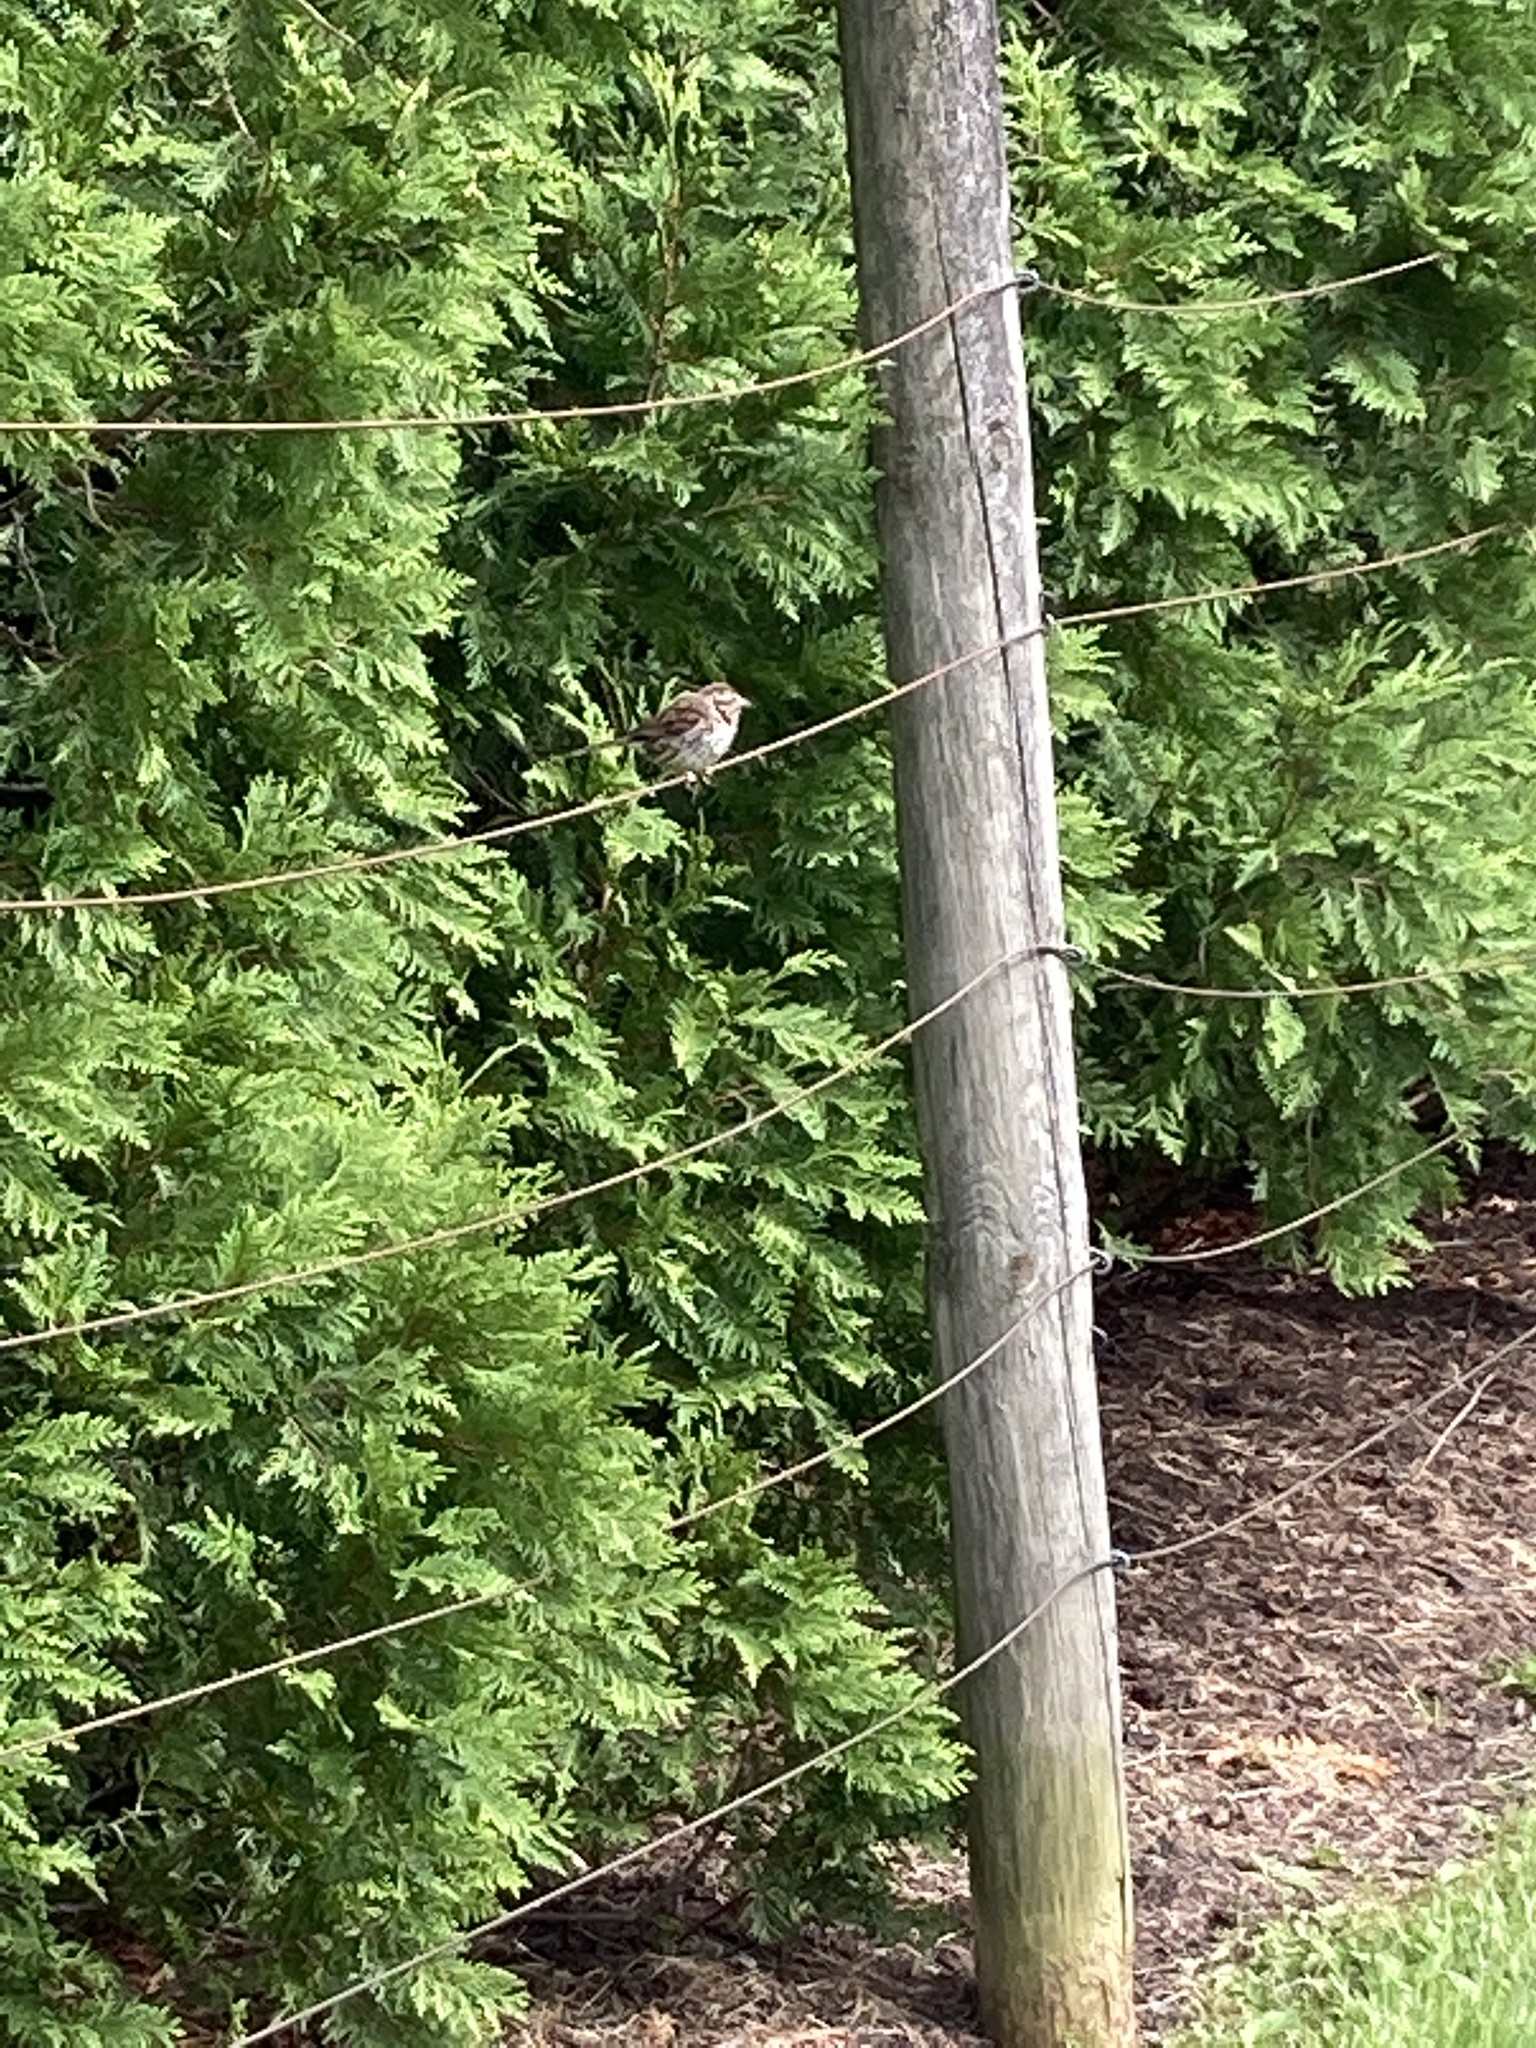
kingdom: Animalia
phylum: Chordata
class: Aves
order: Passeriformes
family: Passerellidae
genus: Melospiza
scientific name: Melospiza melodia
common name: Song sparrow
